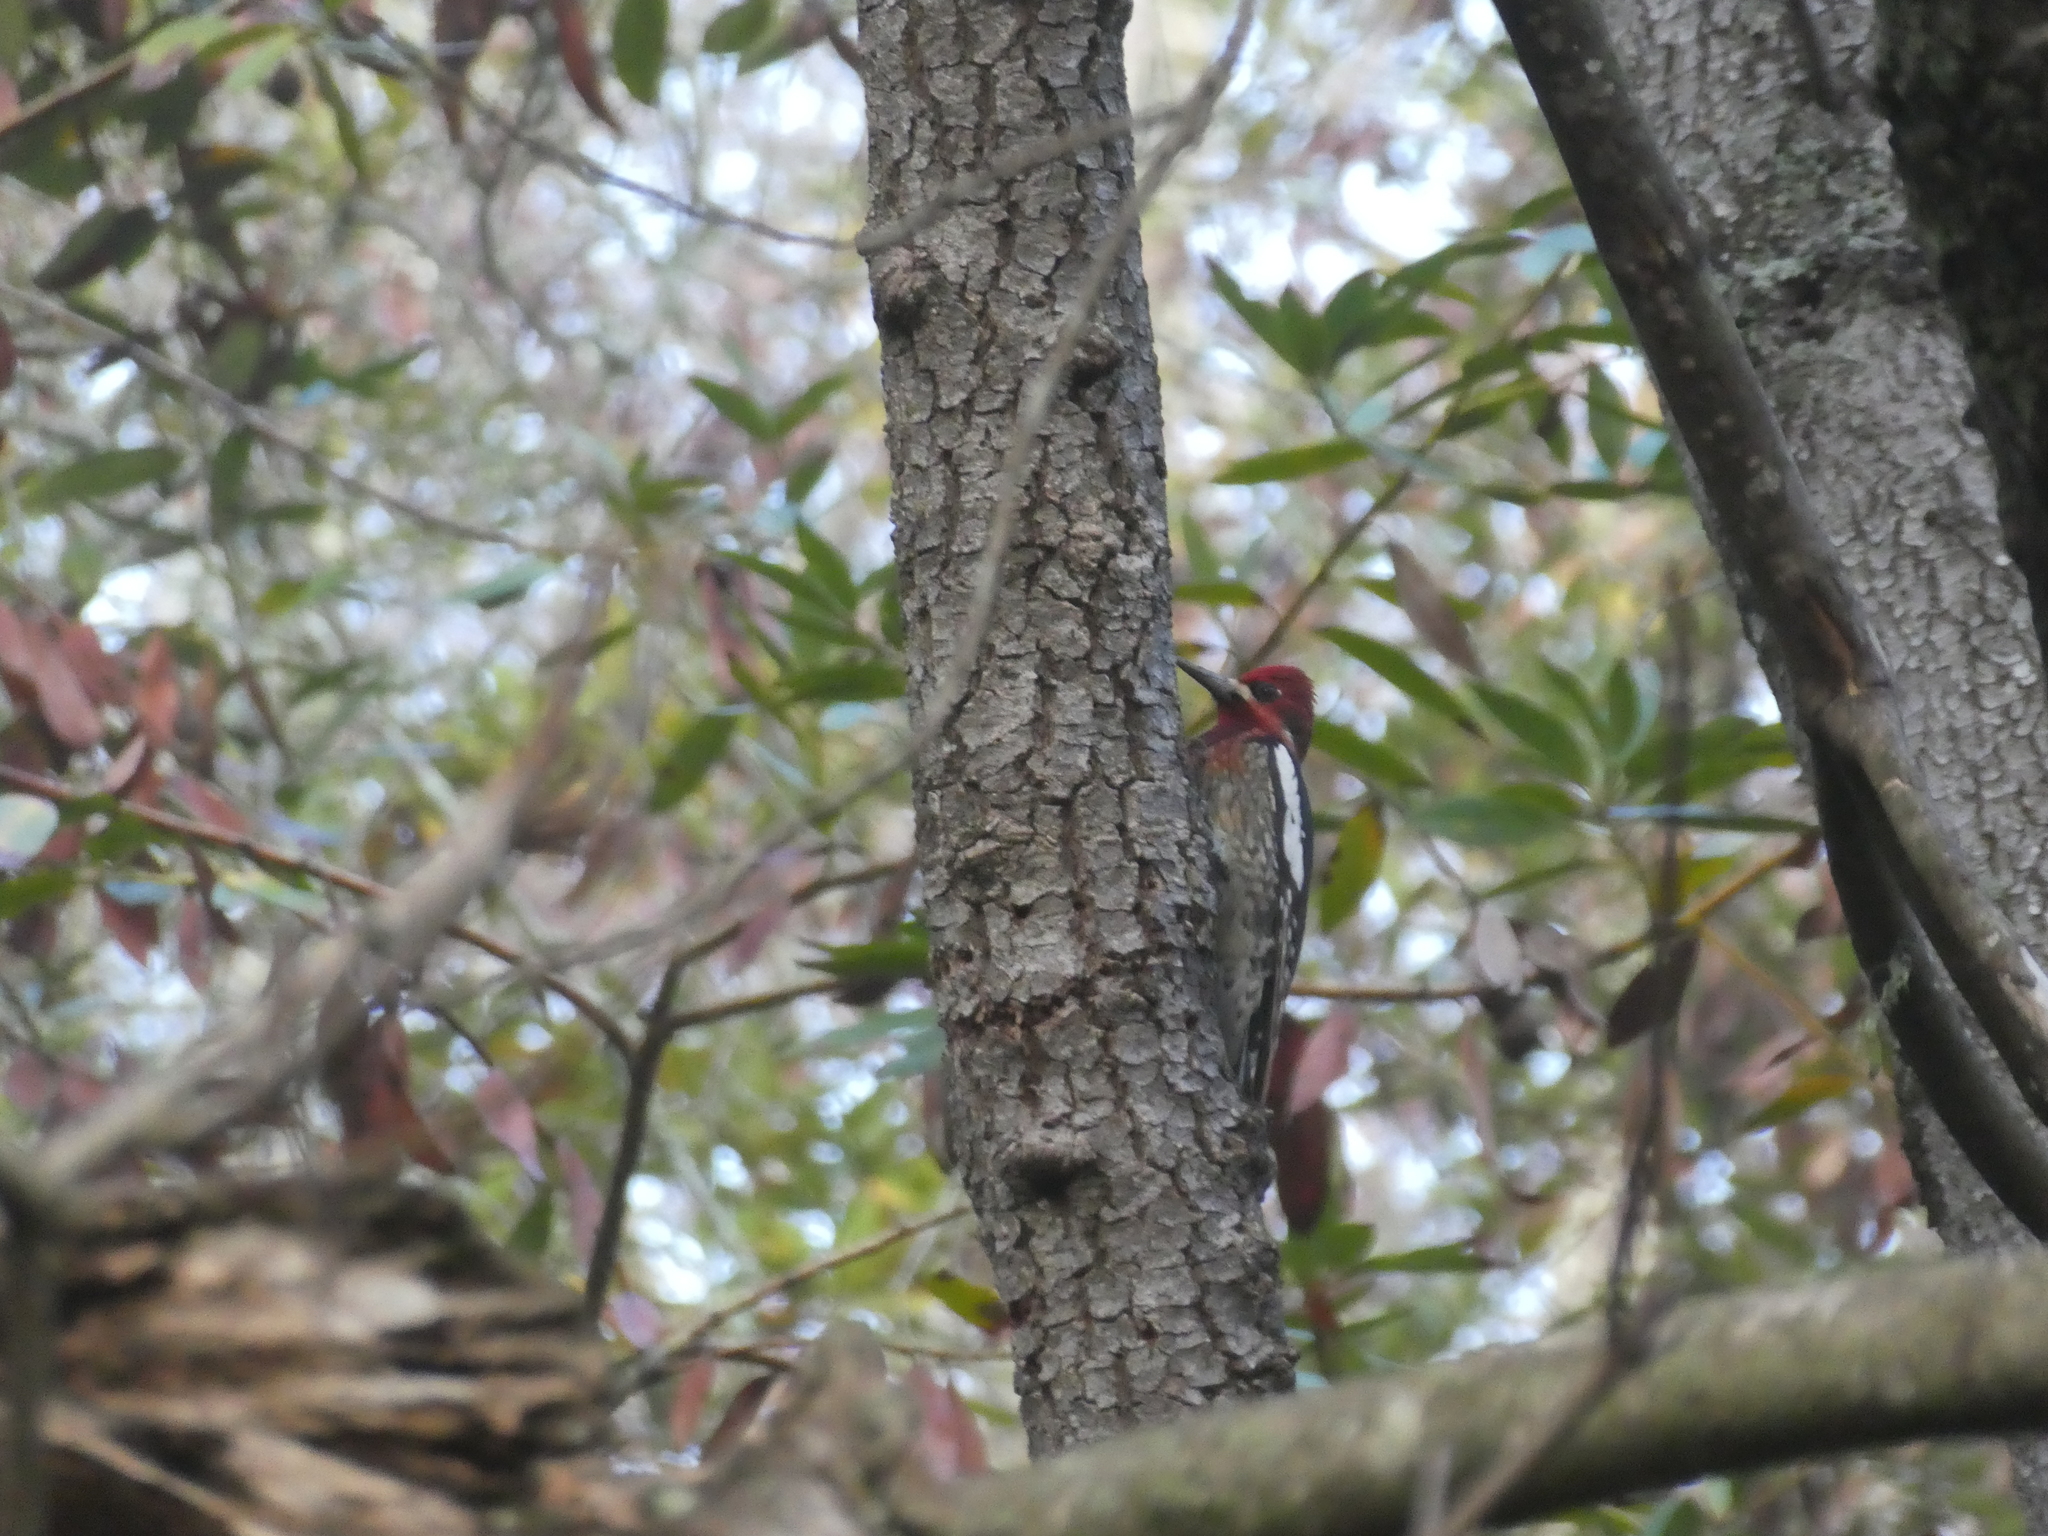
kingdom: Animalia
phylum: Chordata
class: Aves
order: Piciformes
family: Picidae
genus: Sphyrapicus
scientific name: Sphyrapicus ruber
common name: Red-breasted sapsucker
